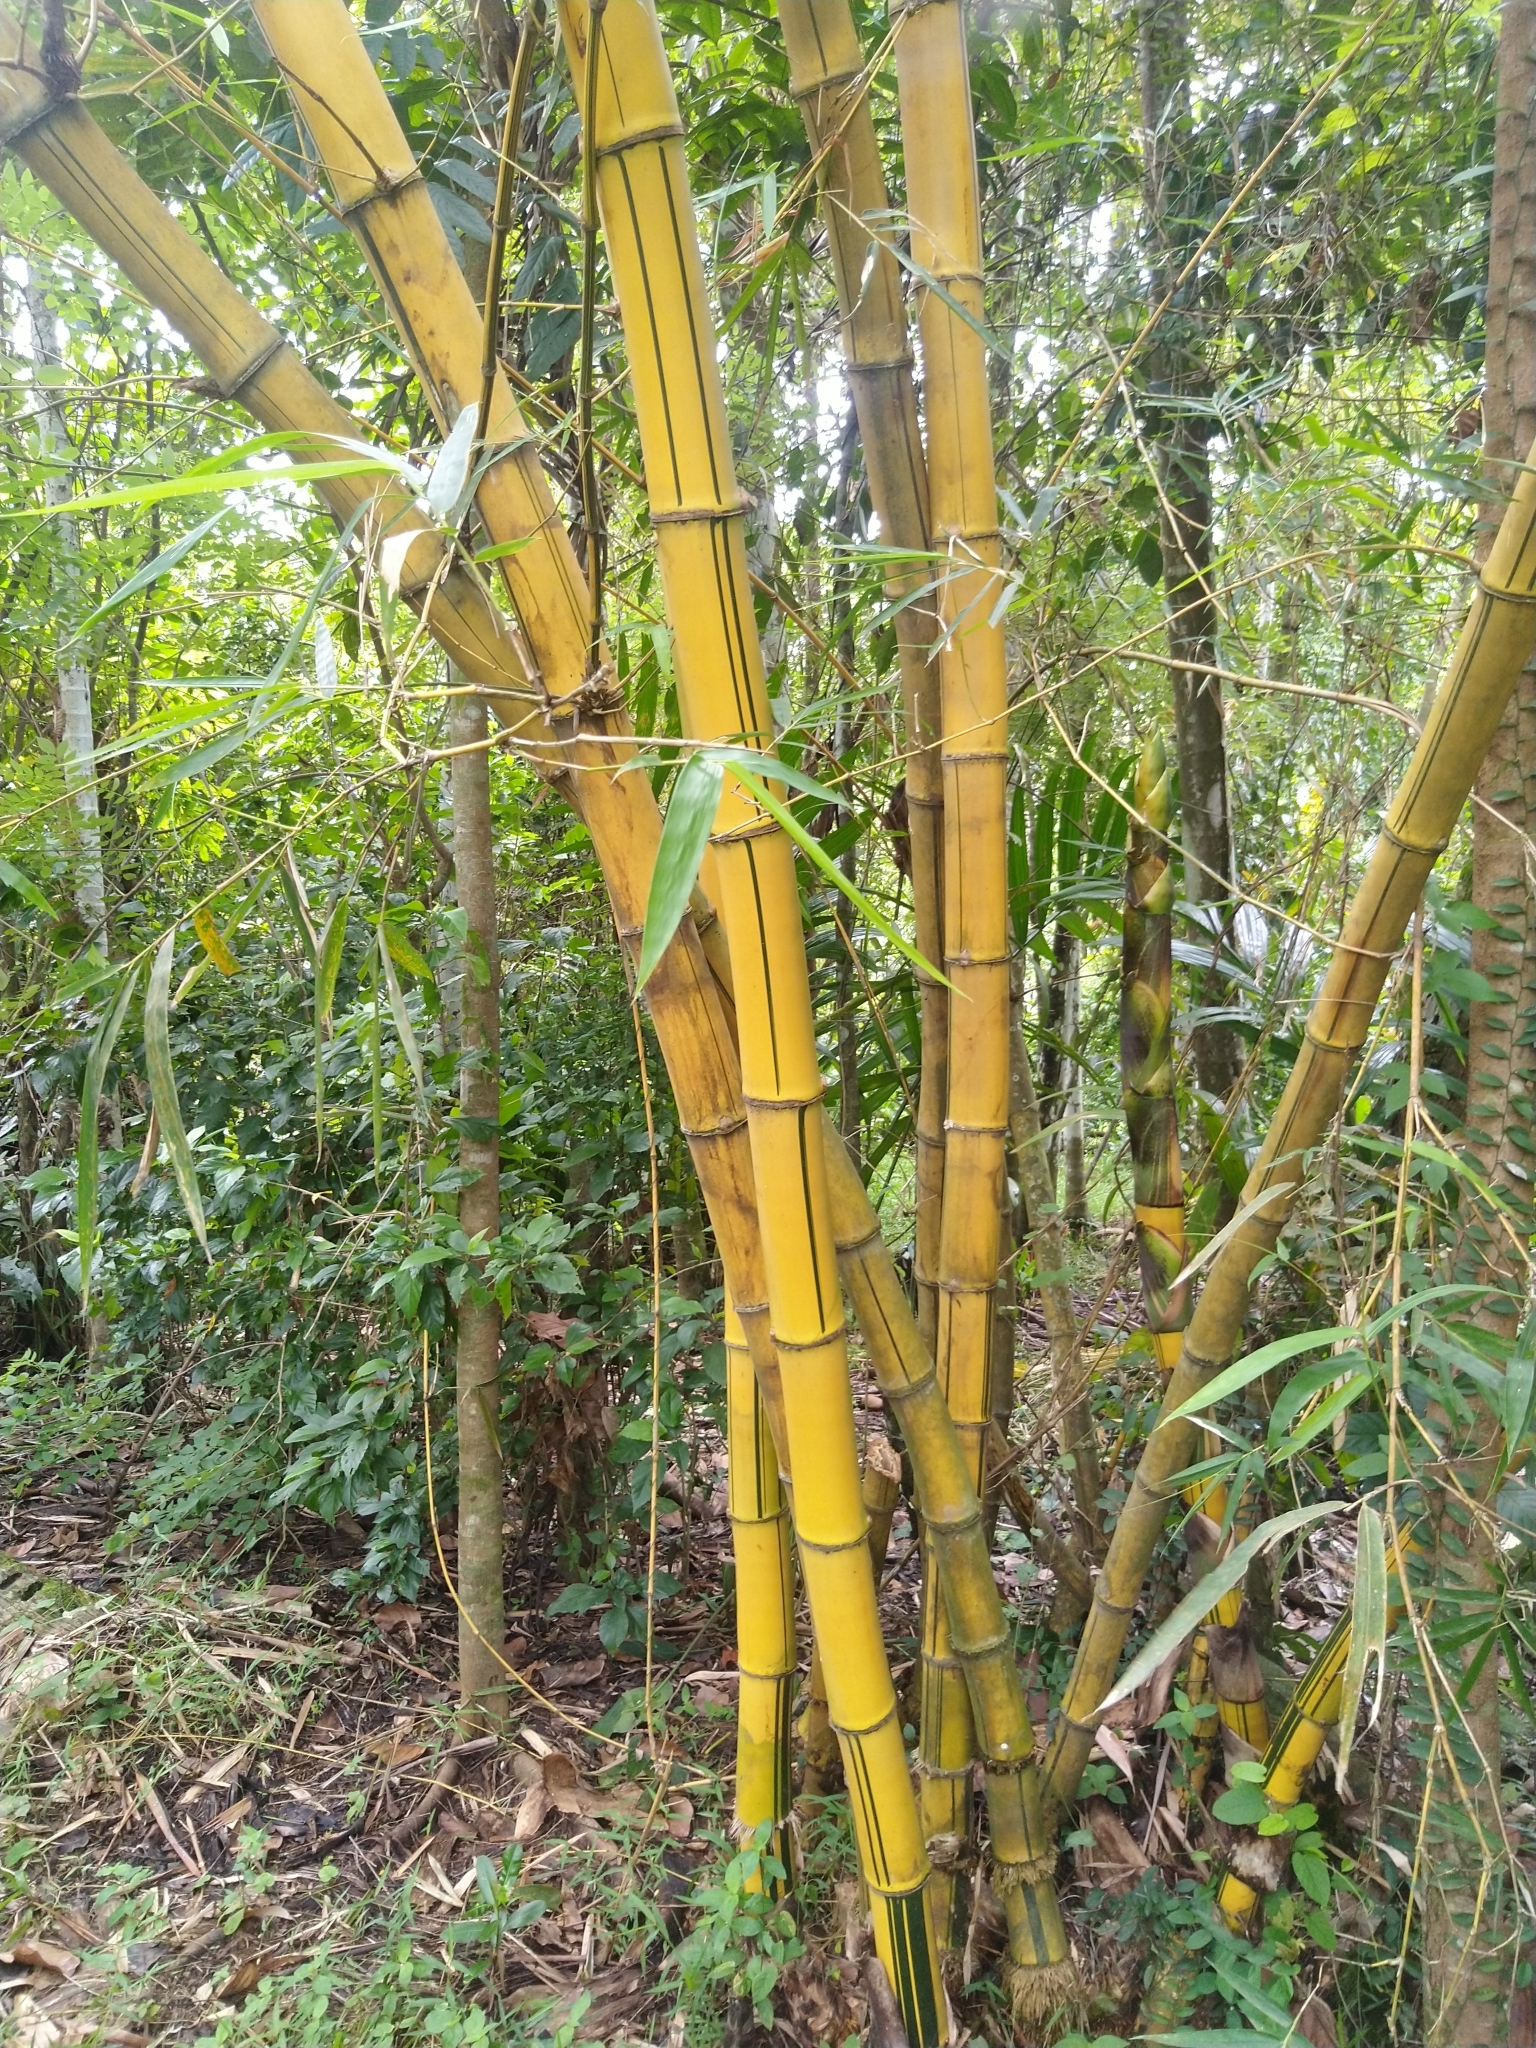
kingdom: Plantae
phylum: Tracheophyta
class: Liliopsida
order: Poales
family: Poaceae
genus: Bambusa
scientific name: Bambusa vulgaris
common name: Common bamboo
